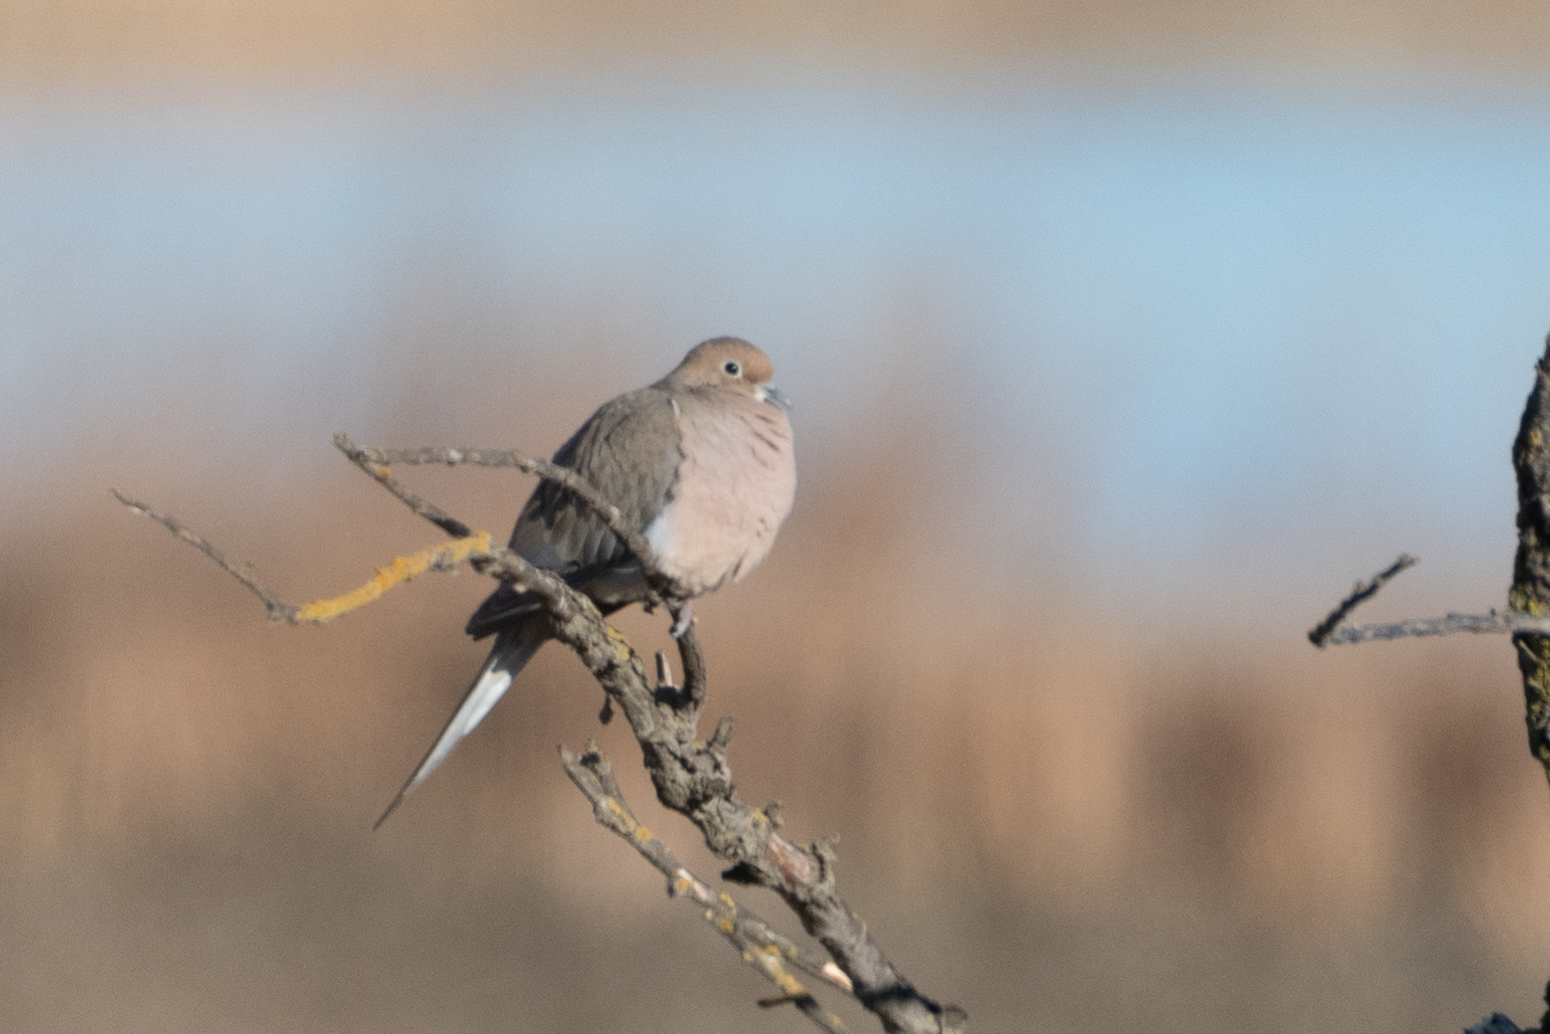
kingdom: Animalia
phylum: Chordata
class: Aves
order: Columbiformes
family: Columbidae
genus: Zenaida
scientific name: Zenaida macroura
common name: Mourning dove
